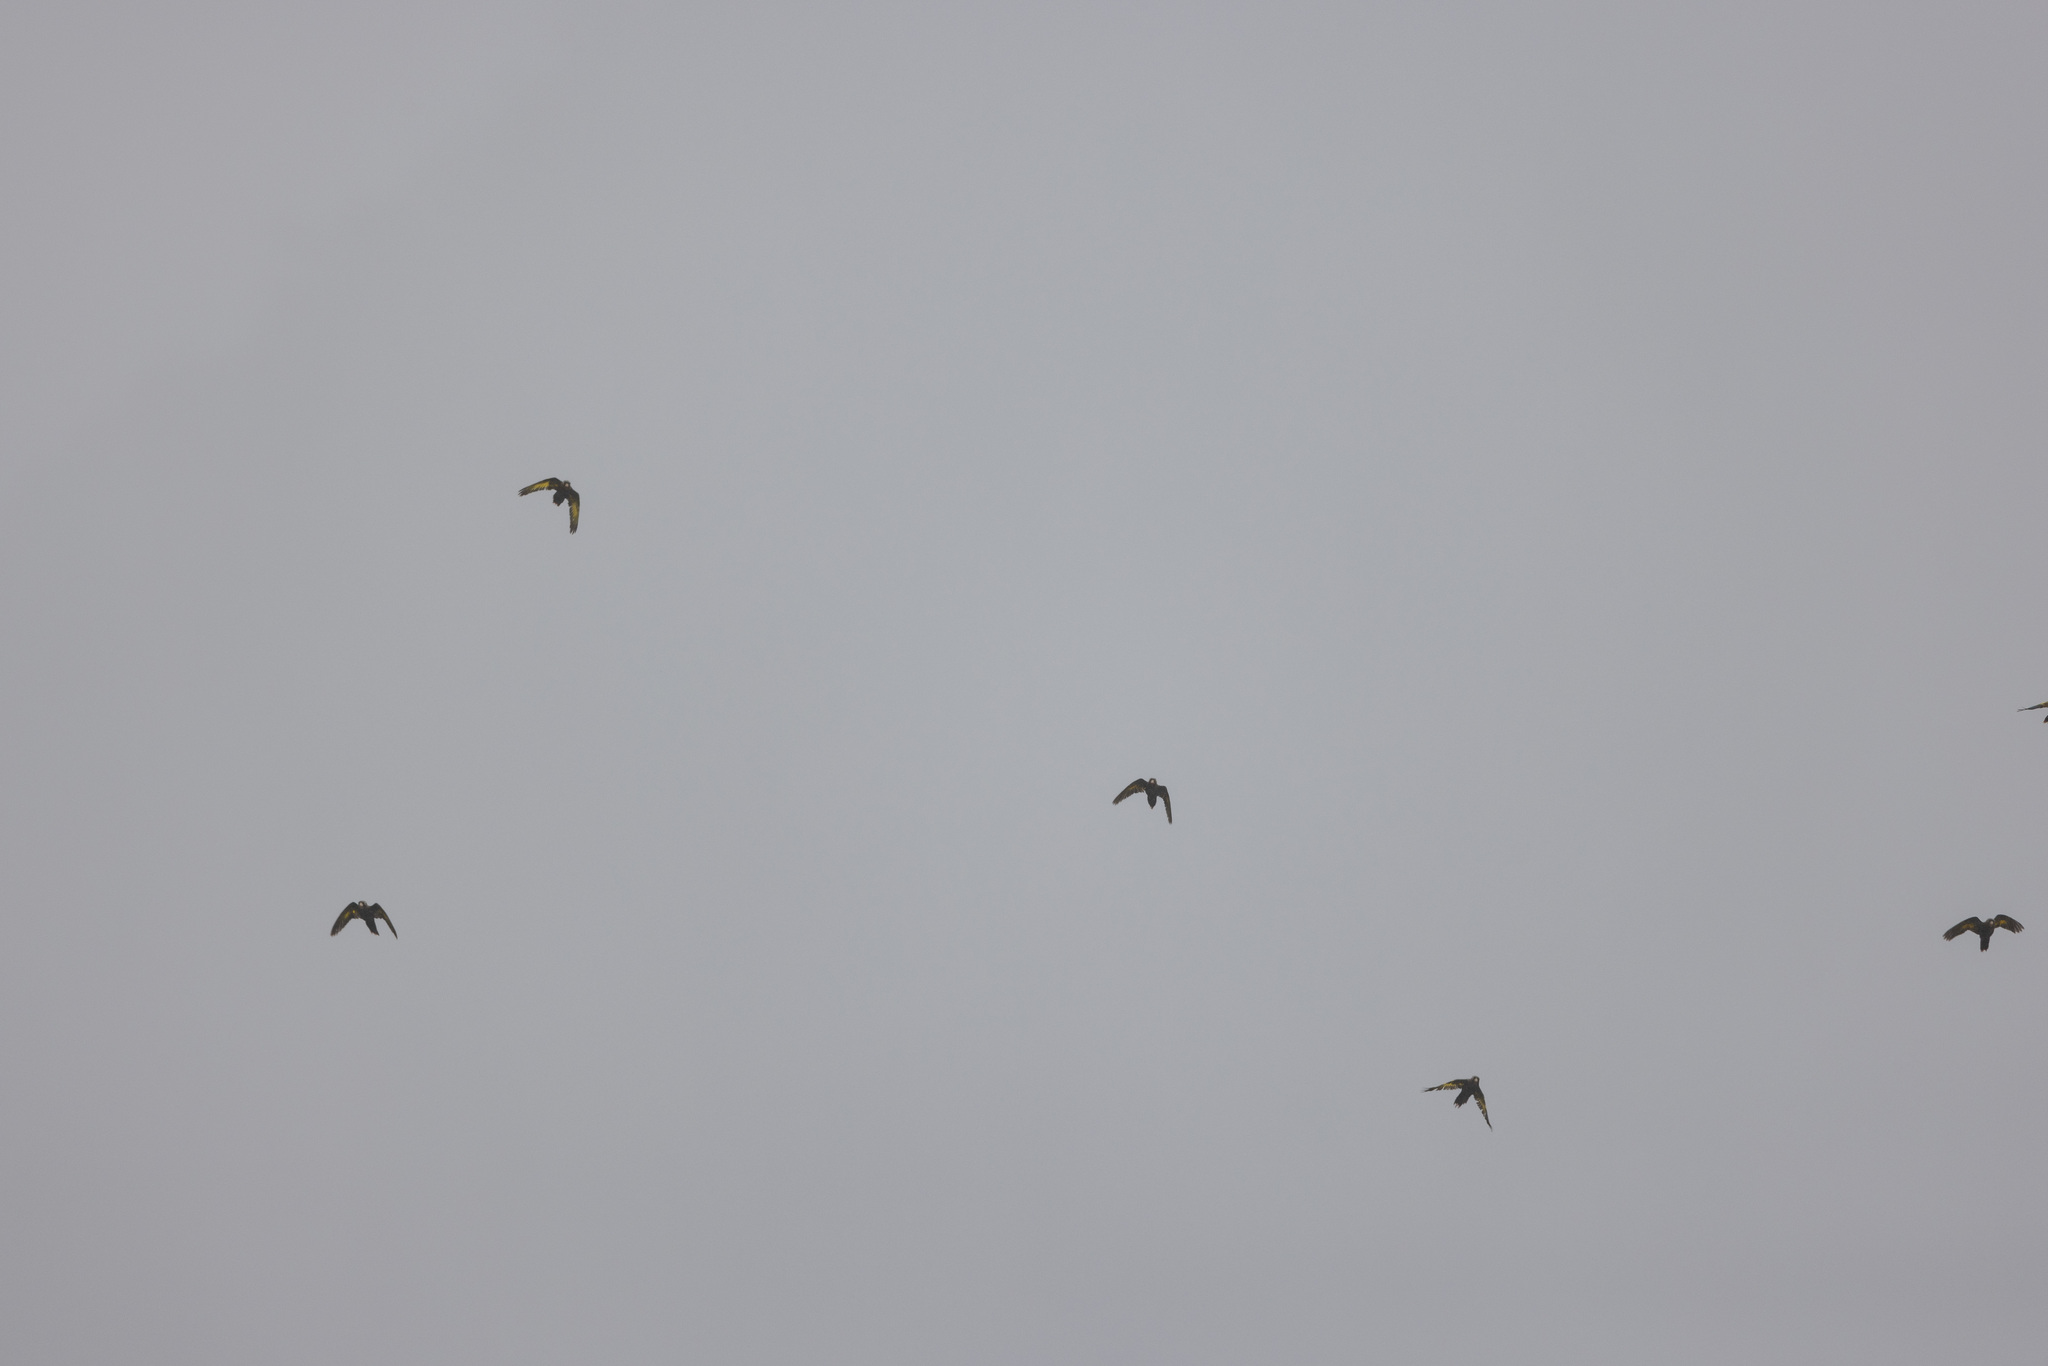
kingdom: Animalia
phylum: Chordata
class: Aves
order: Psittaciformes
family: Psittacidae
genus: Pyrrhura
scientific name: Pyrrhura hoffmanni
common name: Sulphur-winged parakeet
